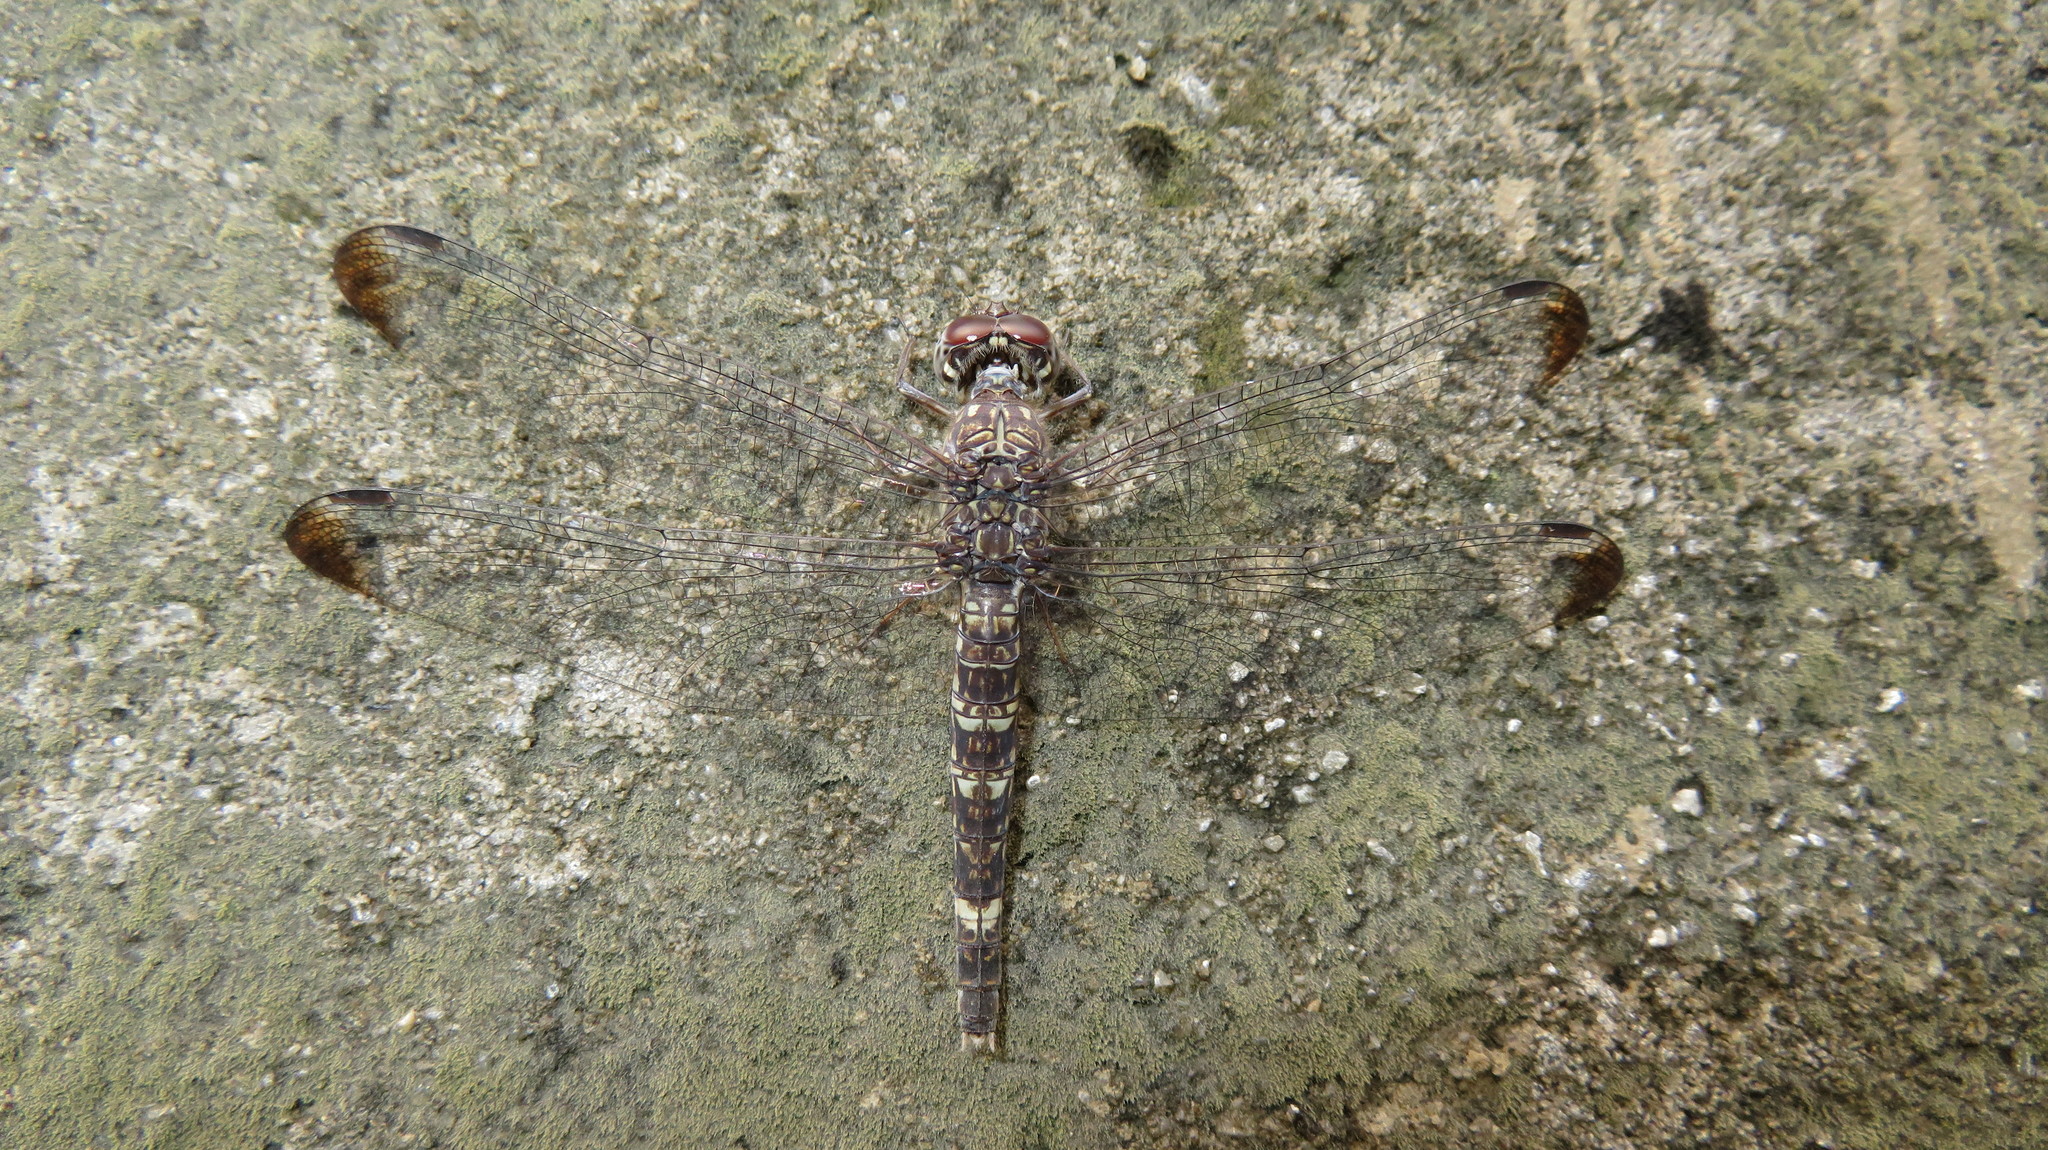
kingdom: Animalia
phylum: Arthropoda
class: Insecta
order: Odonata
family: Libellulidae
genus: Bradinopyga
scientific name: Bradinopyga cornuta
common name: Flecked wall-skimmer
